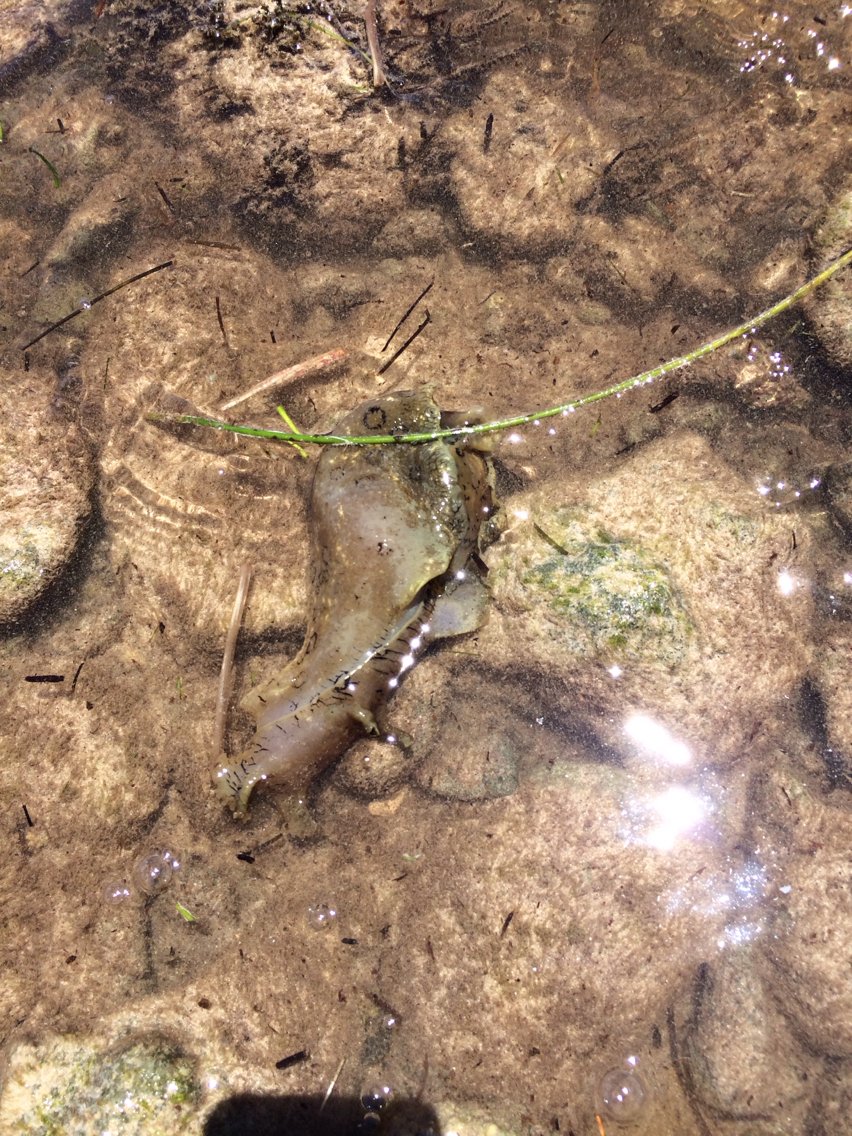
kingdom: Animalia
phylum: Mollusca
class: Gastropoda
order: Aplysiida
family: Aplysiidae
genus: Aplysia
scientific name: Aplysia dactylomela
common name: Large-spotted sea hare
